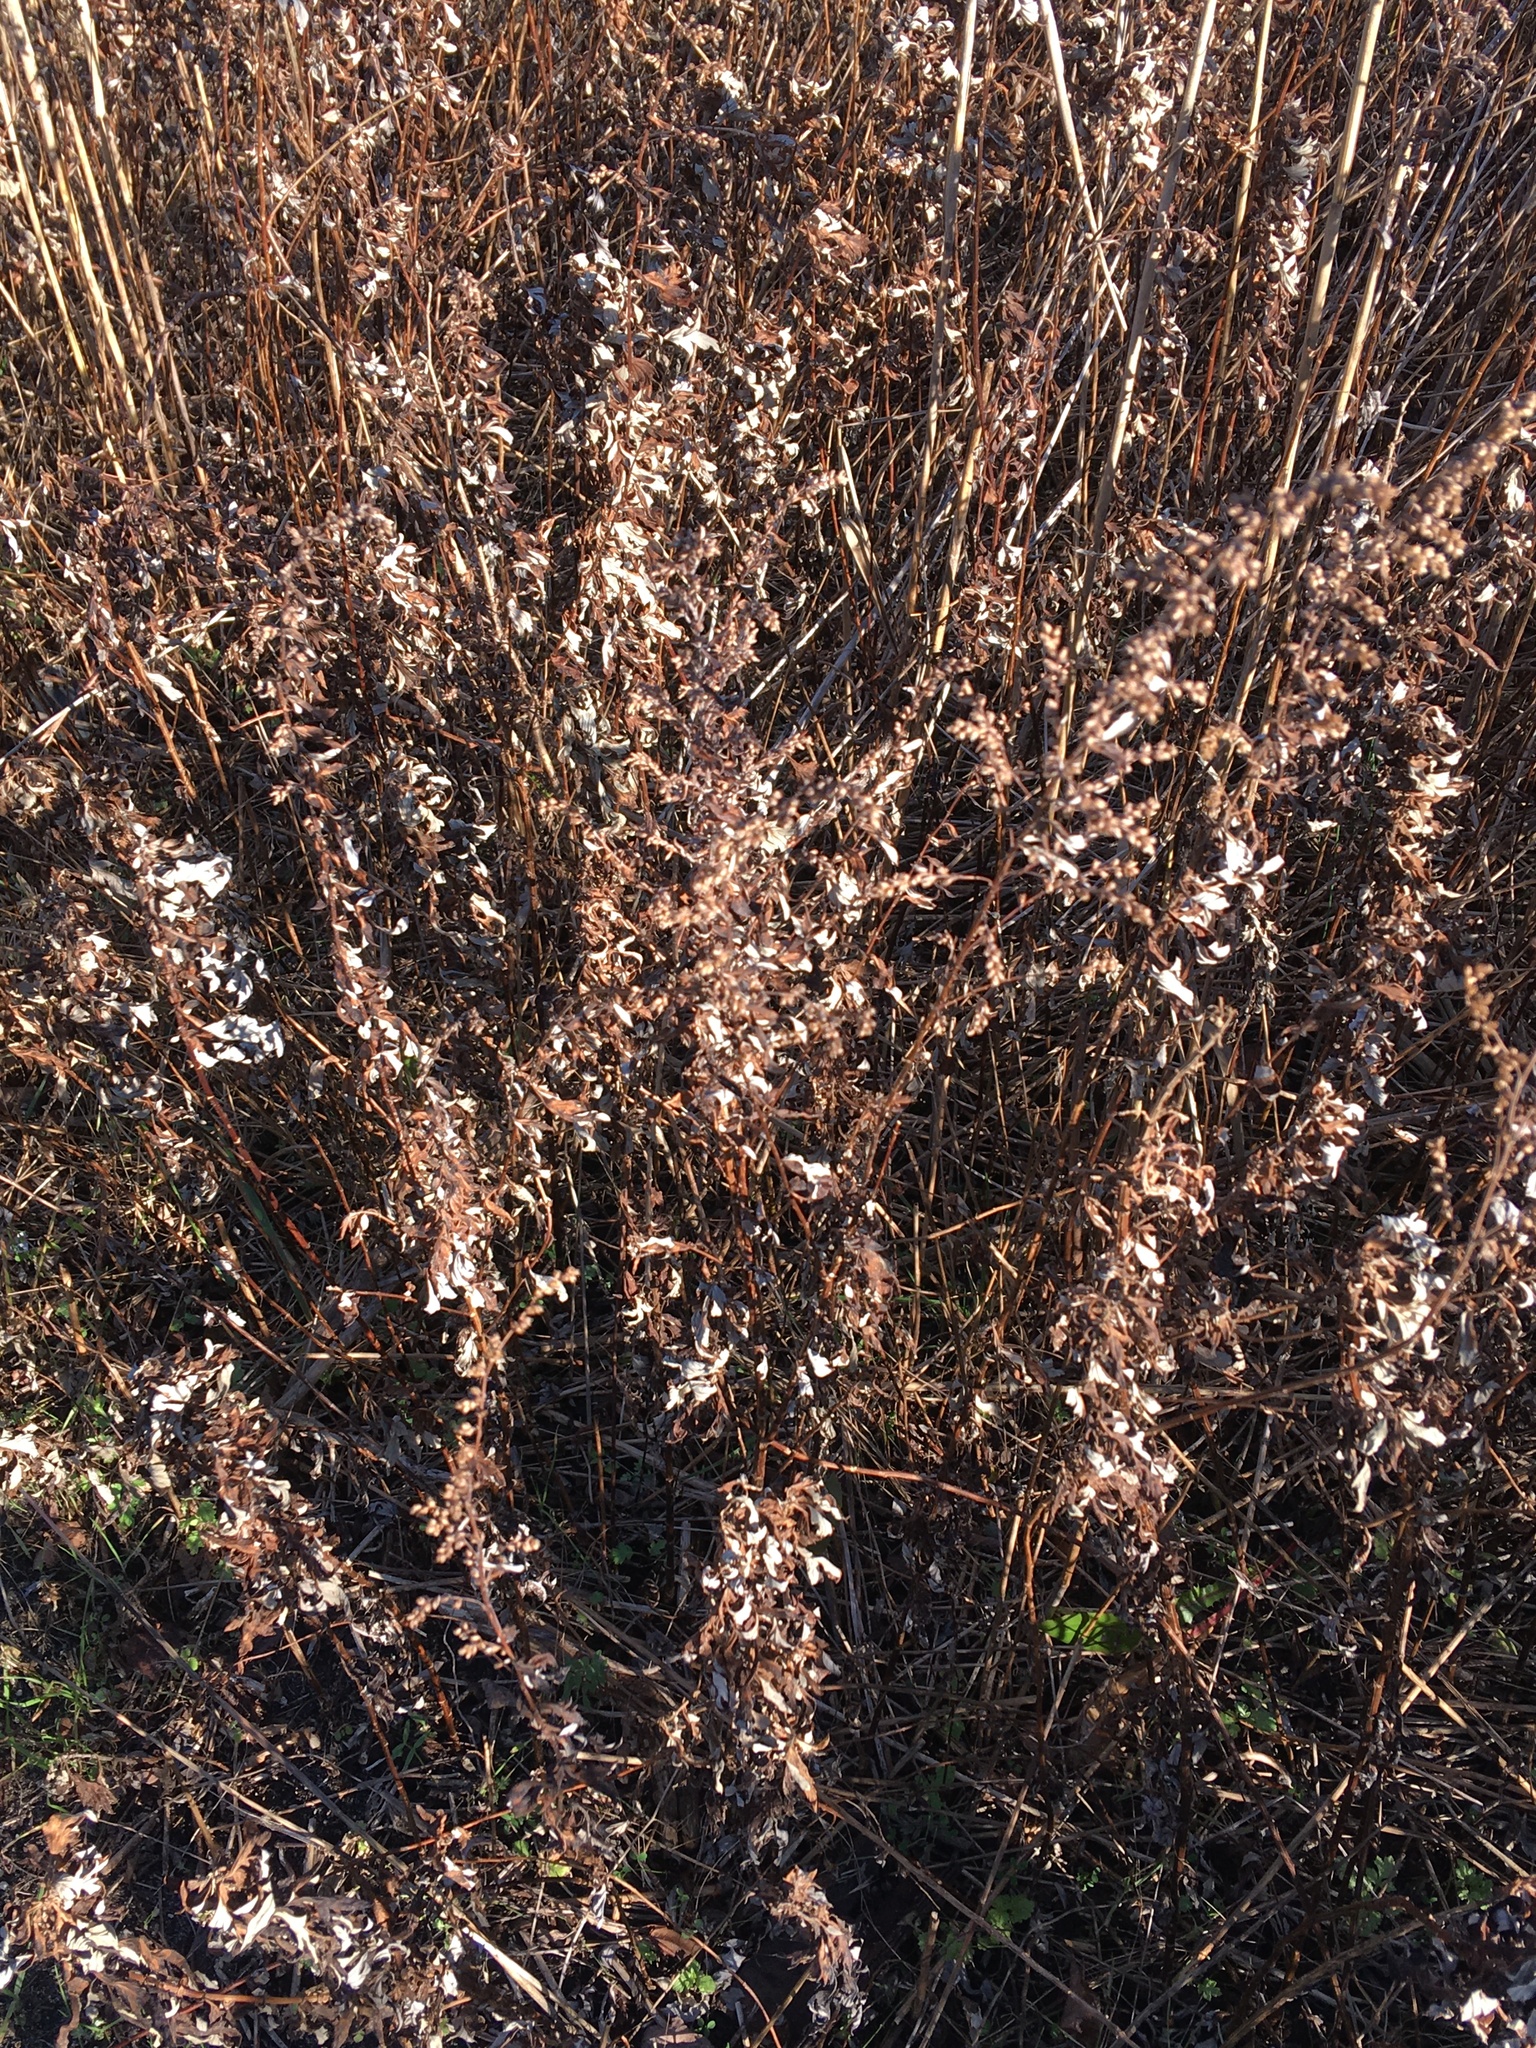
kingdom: Plantae
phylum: Tracheophyta
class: Magnoliopsida
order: Asterales
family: Asteraceae
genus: Artemisia
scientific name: Artemisia vulgaris
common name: Mugwort
